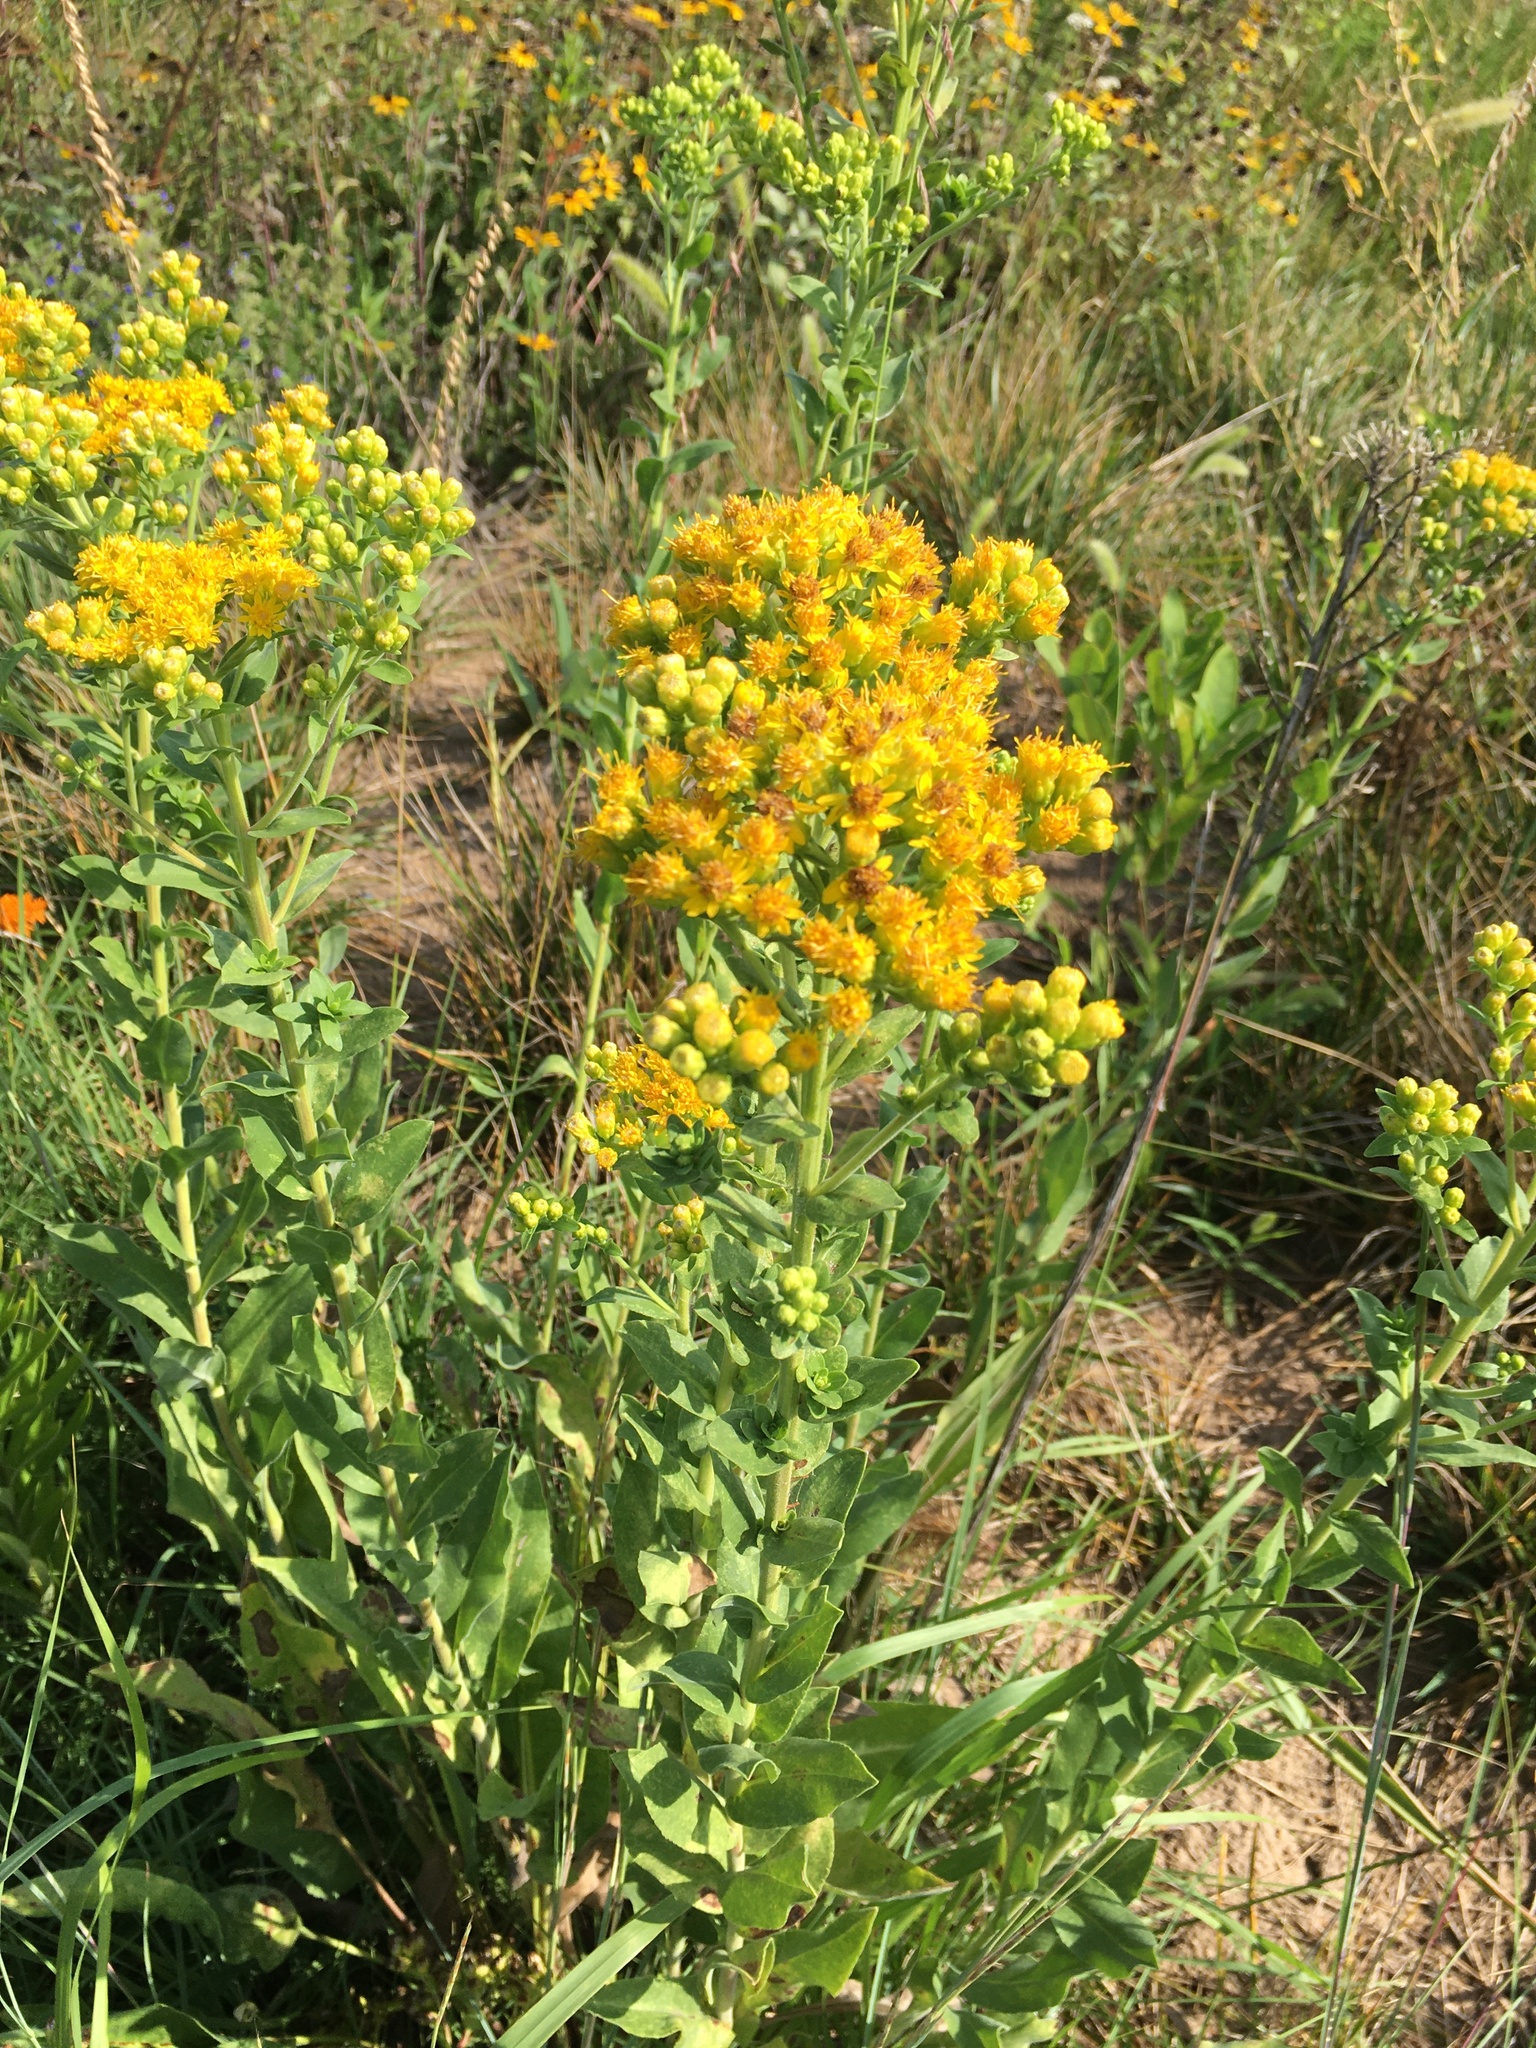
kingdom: Plantae
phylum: Tracheophyta
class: Magnoliopsida
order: Asterales
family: Asteraceae
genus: Solidago
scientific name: Solidago rigida
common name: Rigid goldenrod
